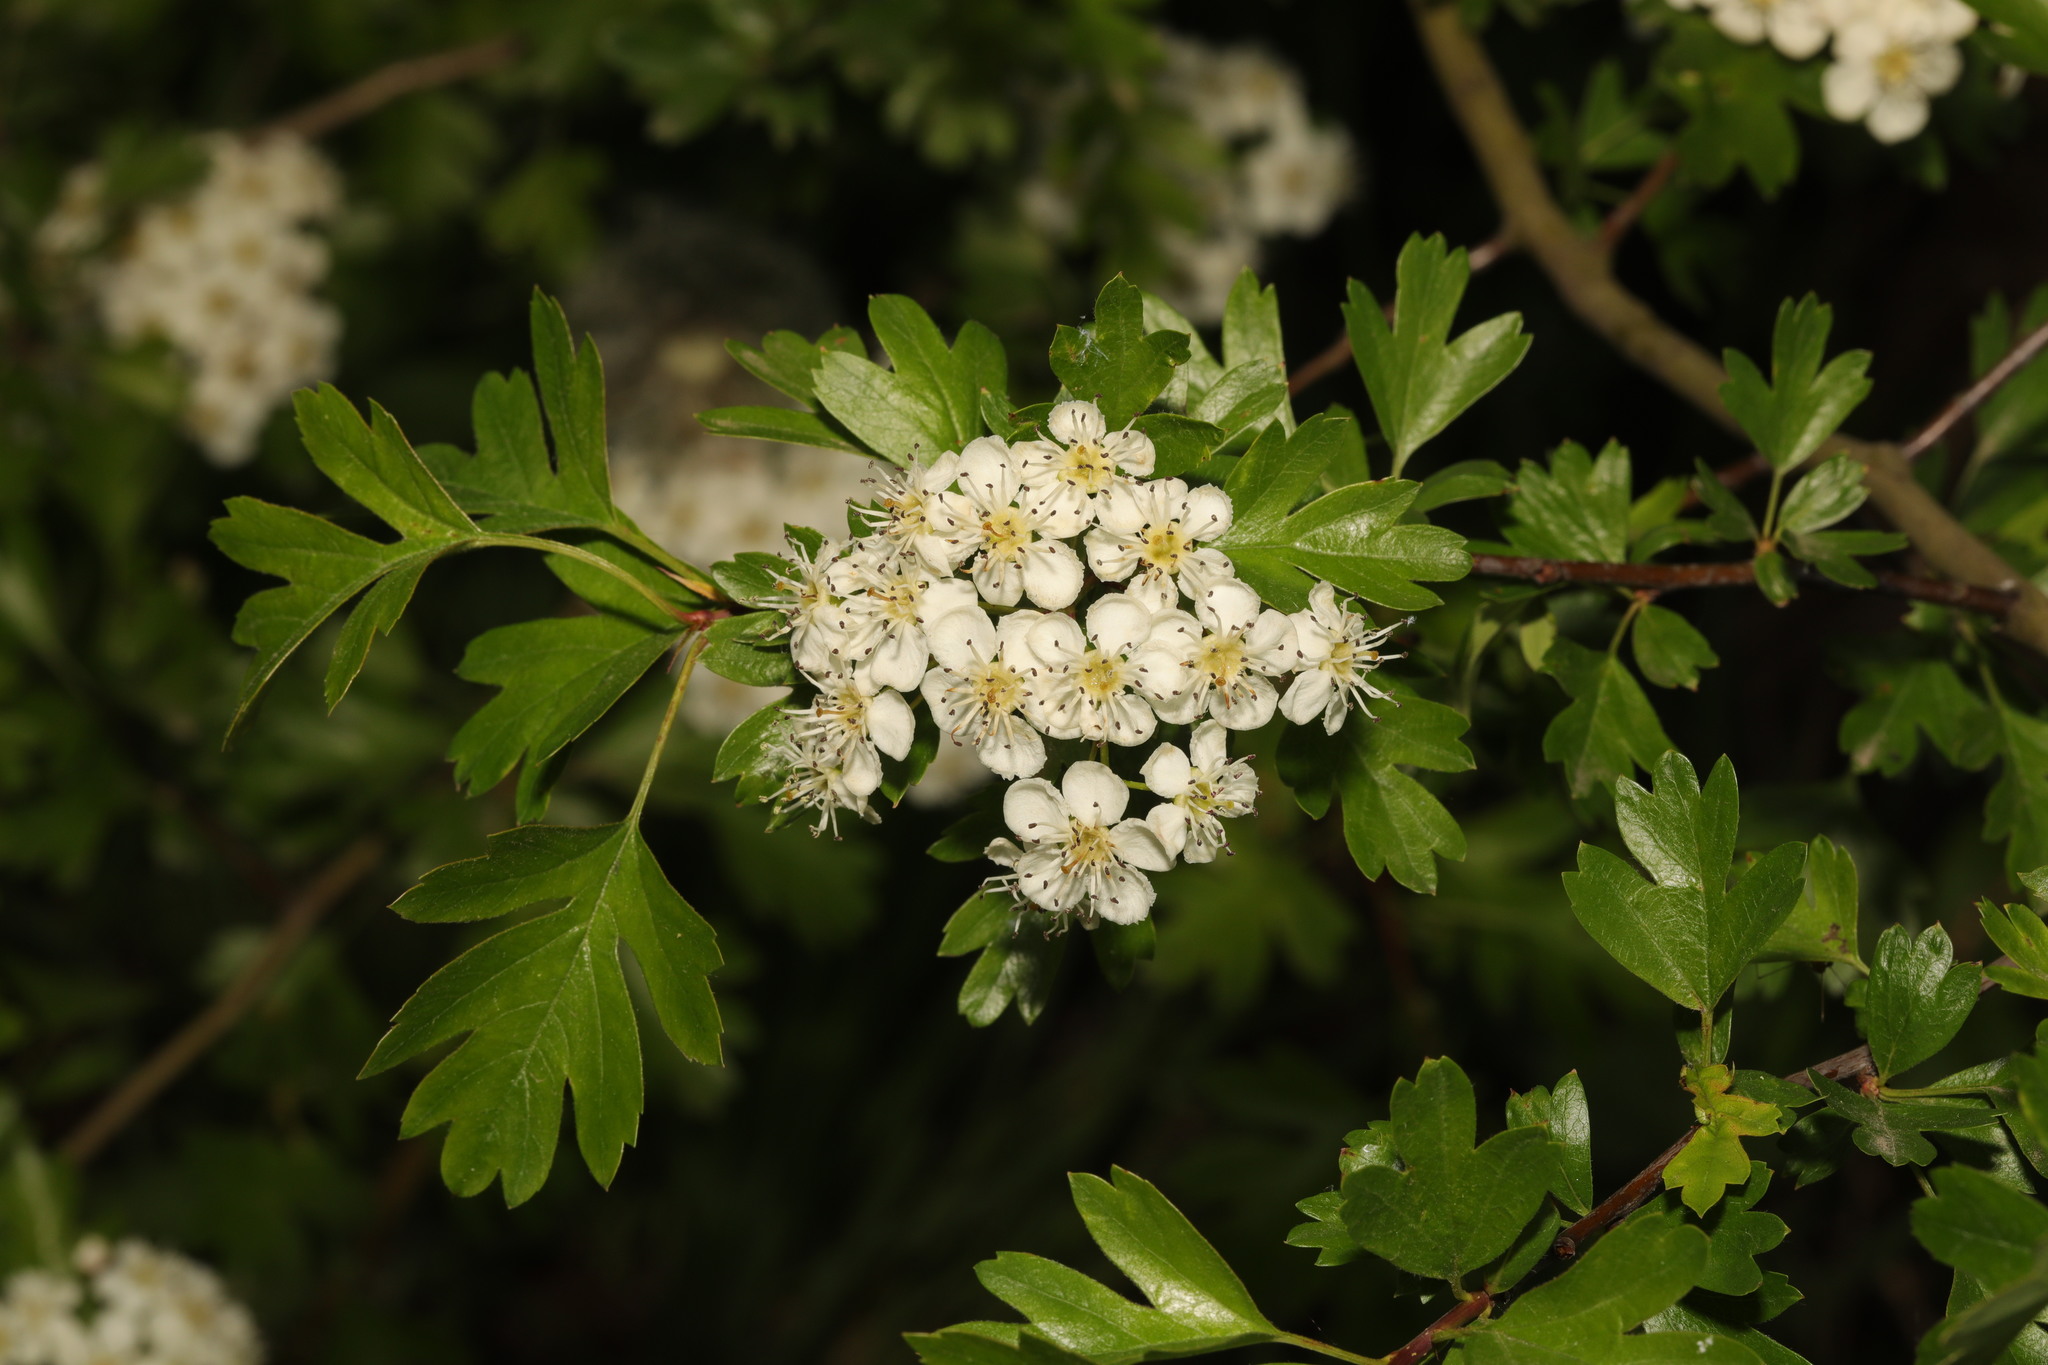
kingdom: Plantae
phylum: Tracheophyta
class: Magnoliopsida
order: Rosales
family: Rosaceae
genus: Crataegus
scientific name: Crataegus monogyna
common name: Hawthorn
